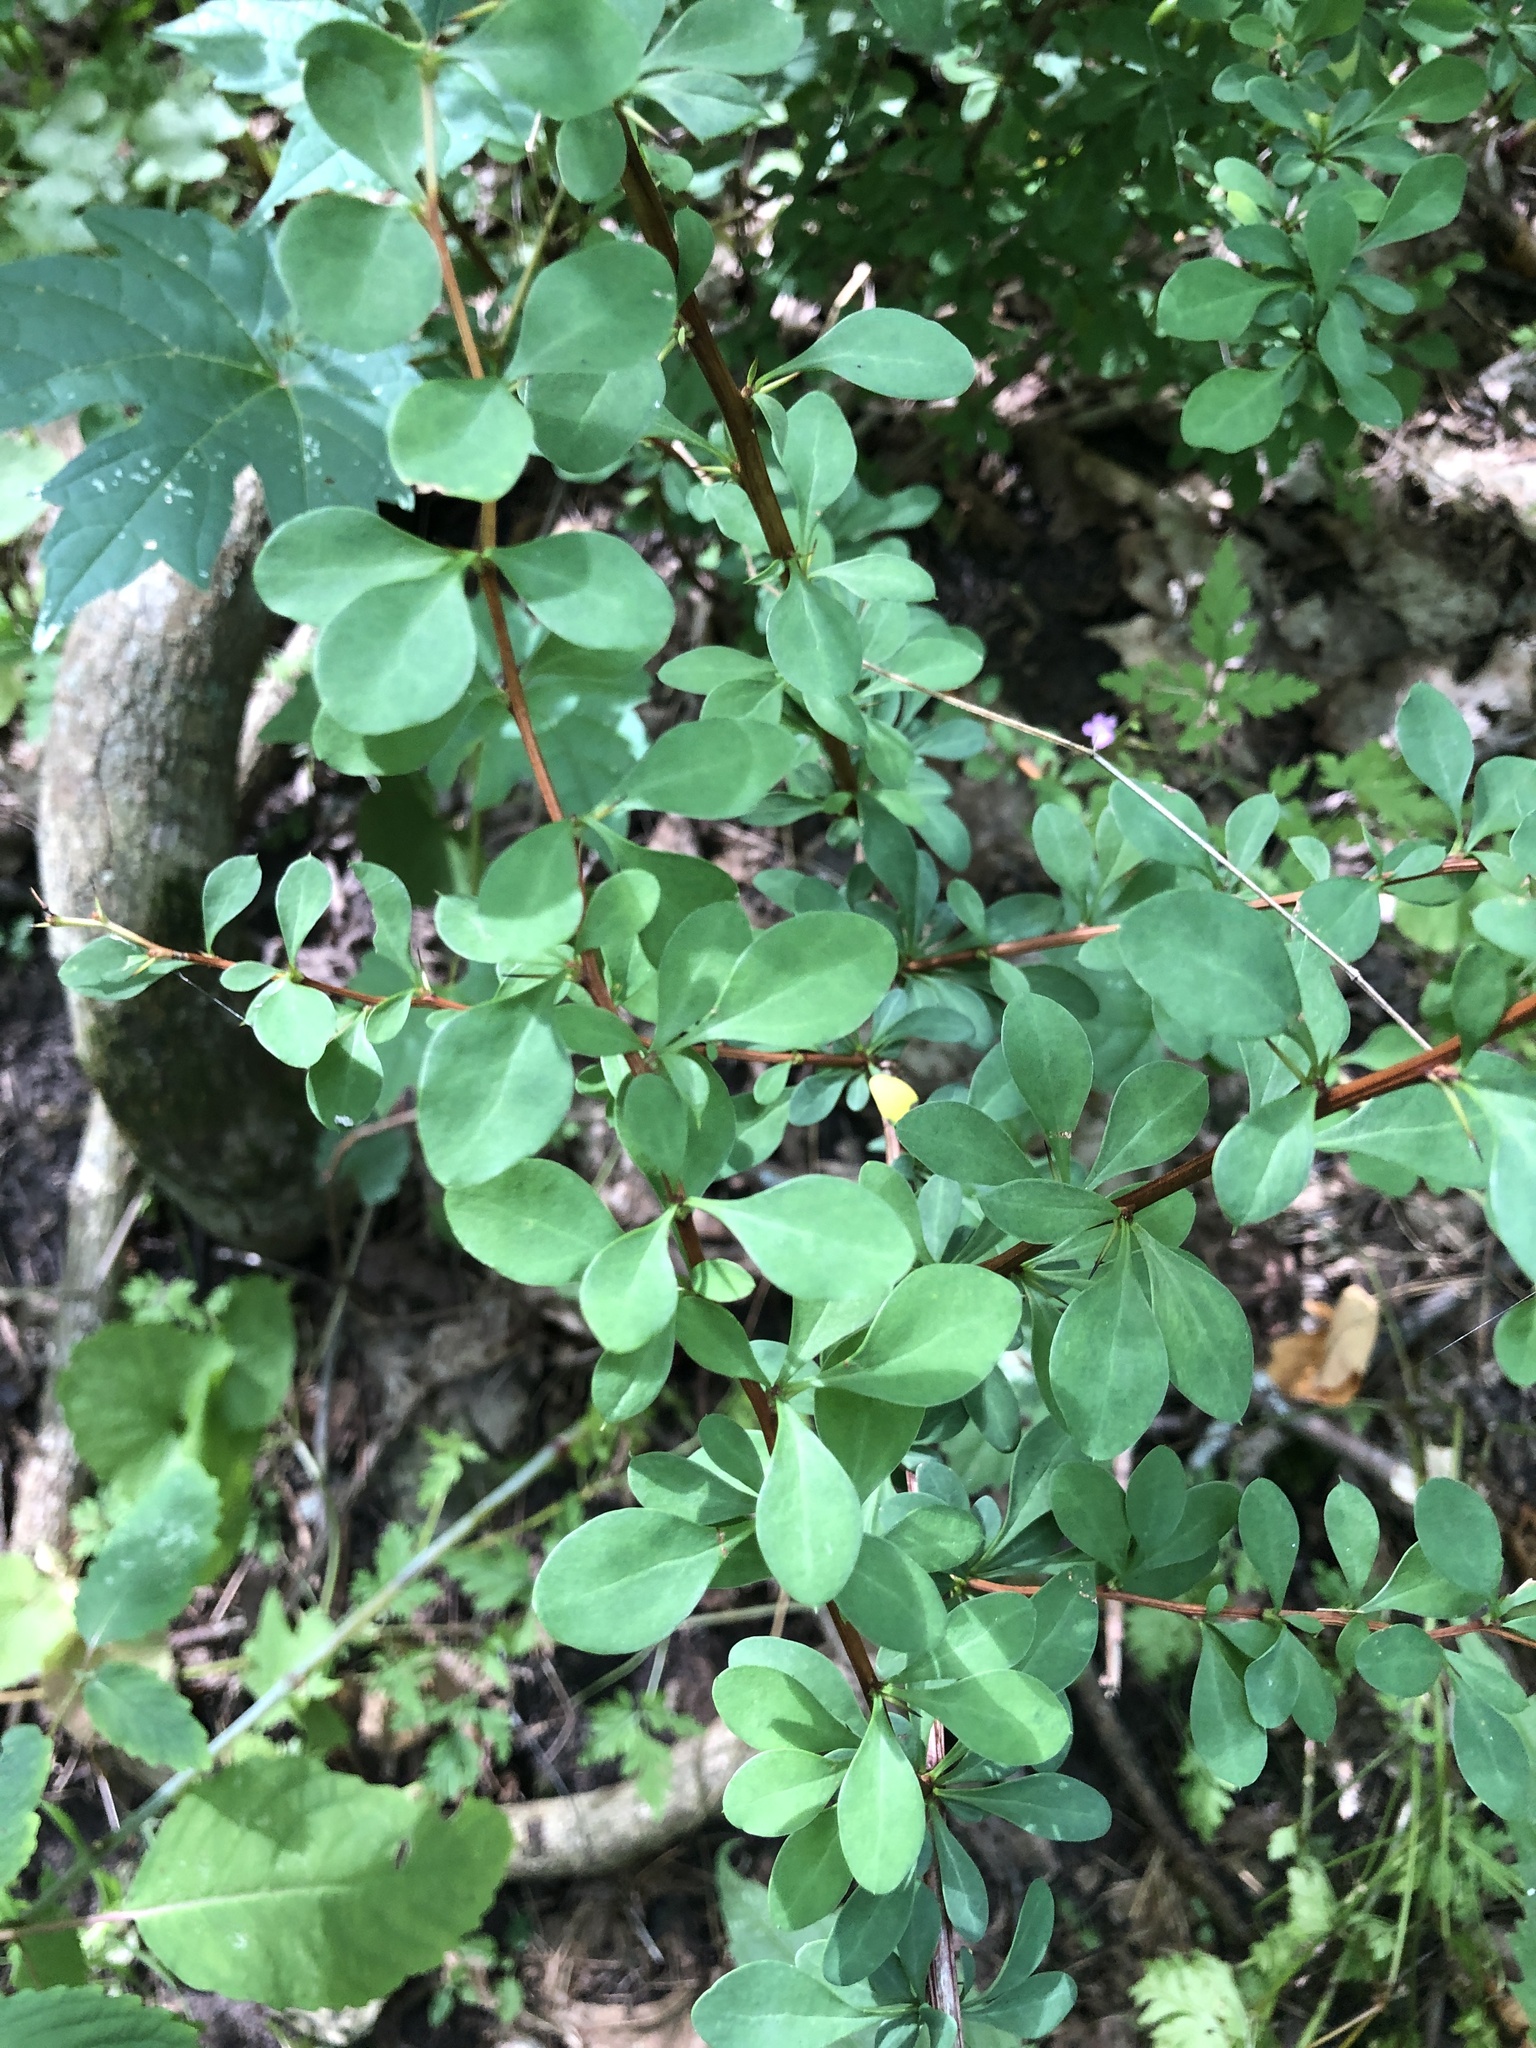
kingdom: Plantae
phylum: Tracheophyta
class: Magnoliopsida
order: Ranunculales
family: Berberidaceae
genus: Berberis
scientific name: Berberis thunbergii
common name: Japanese barberry
